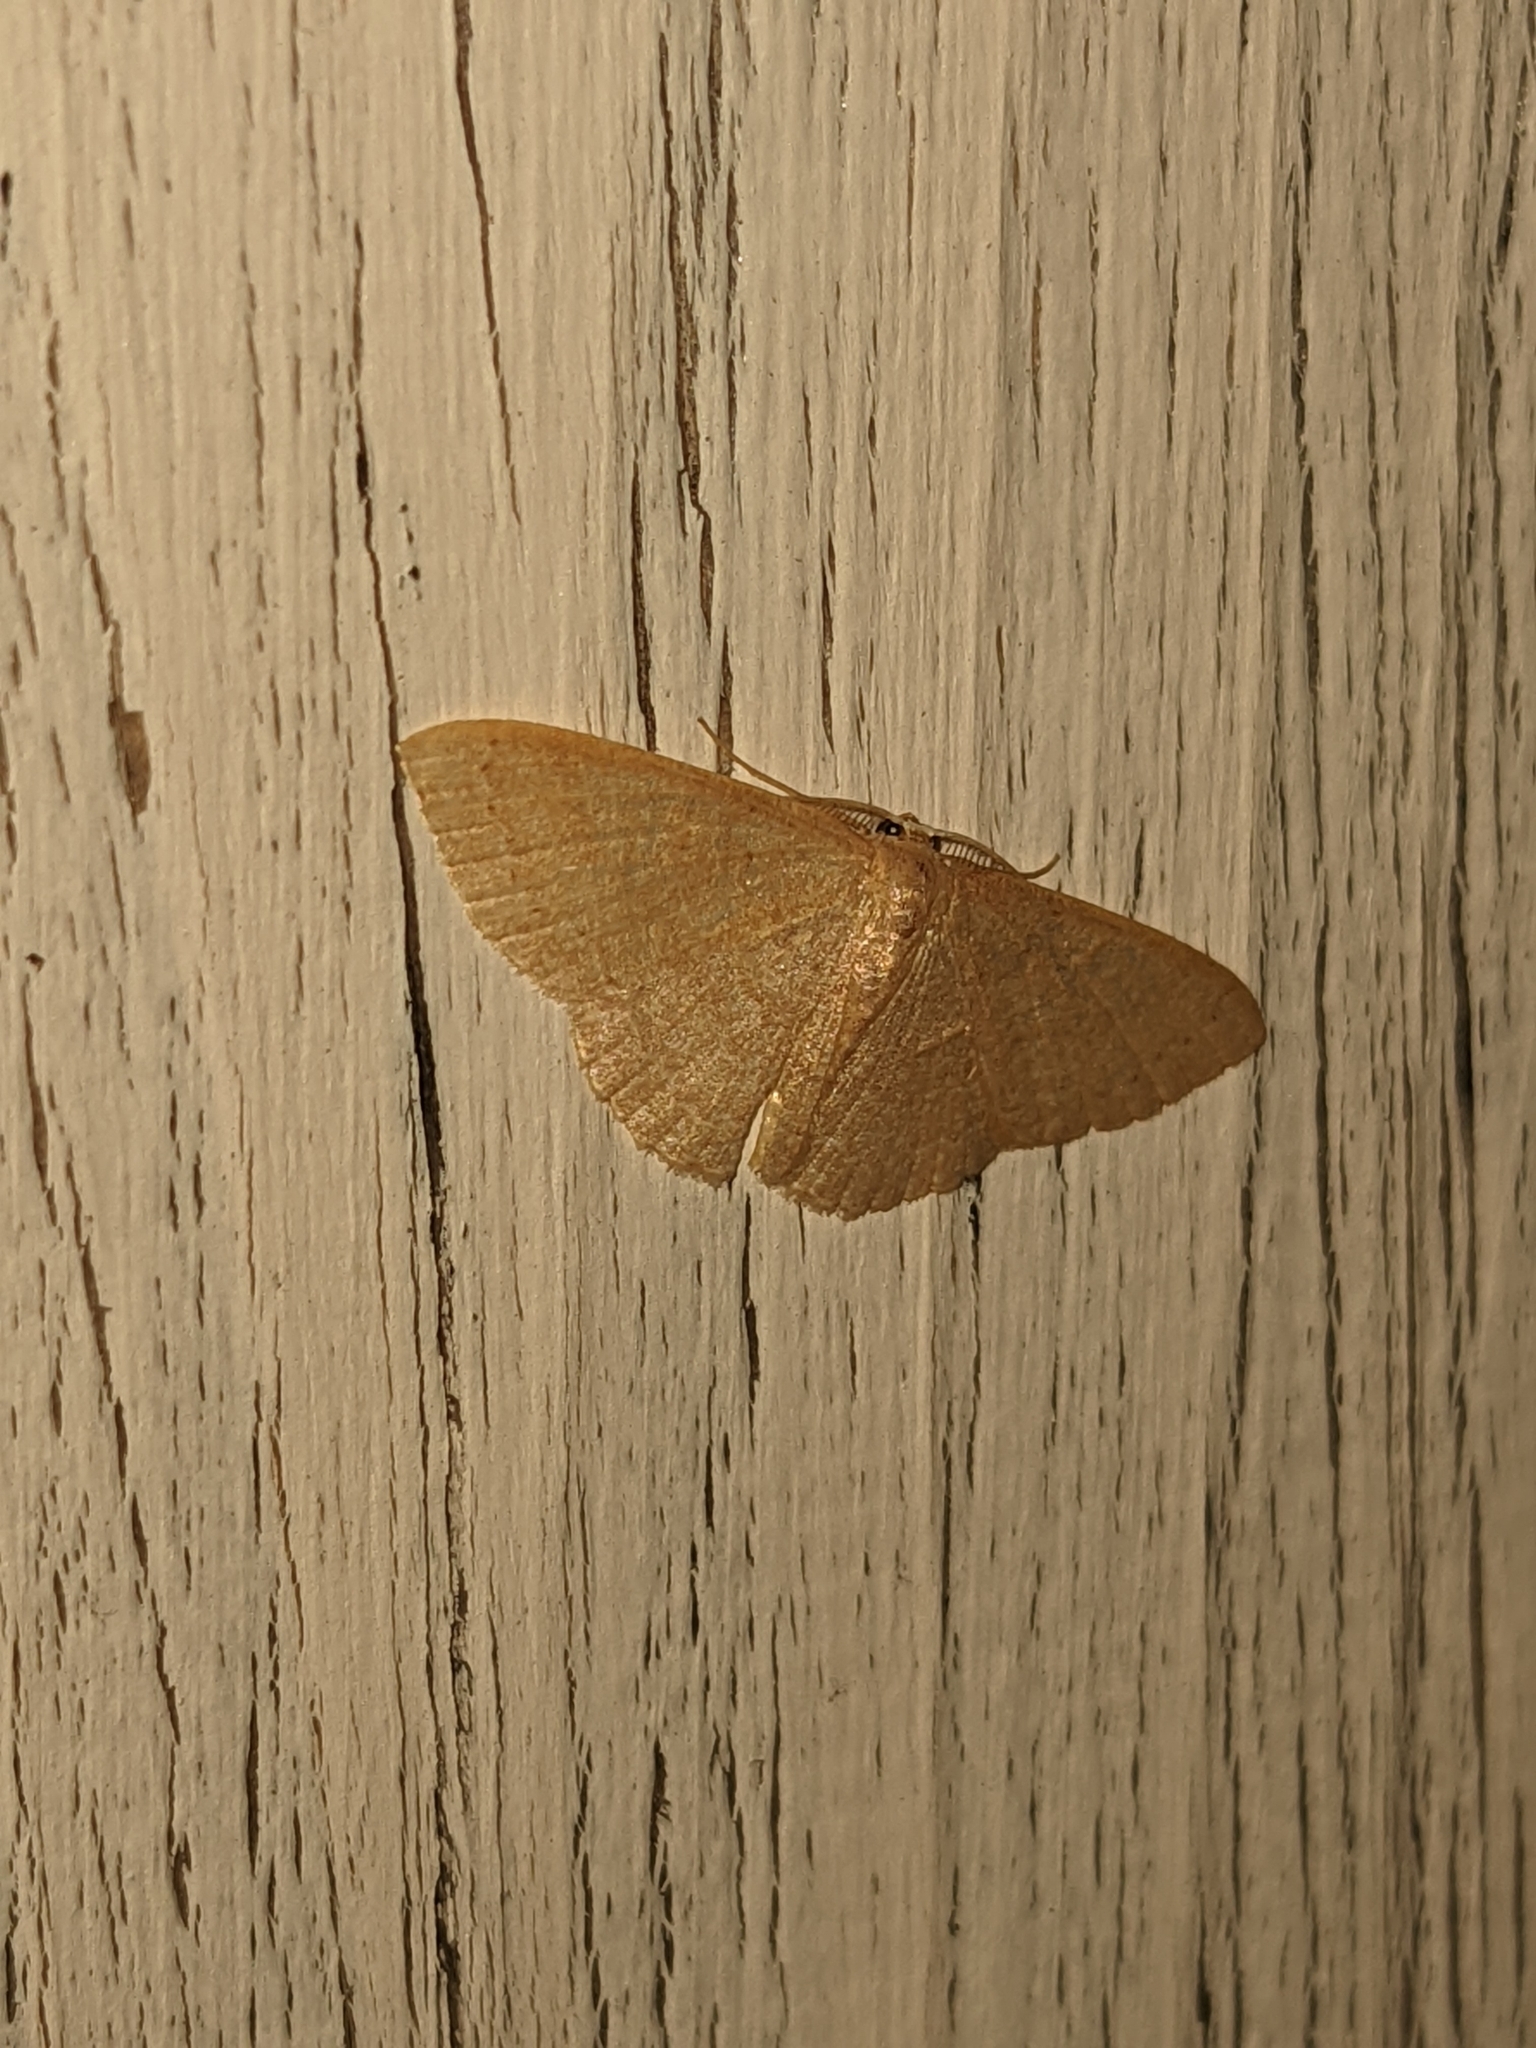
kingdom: Animalia
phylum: Arthropoda
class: Insecta
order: Lepidoptera
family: Geometridae
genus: Pleuroprucha
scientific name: Pleuroprucha insulsaria
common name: Common tan wave
